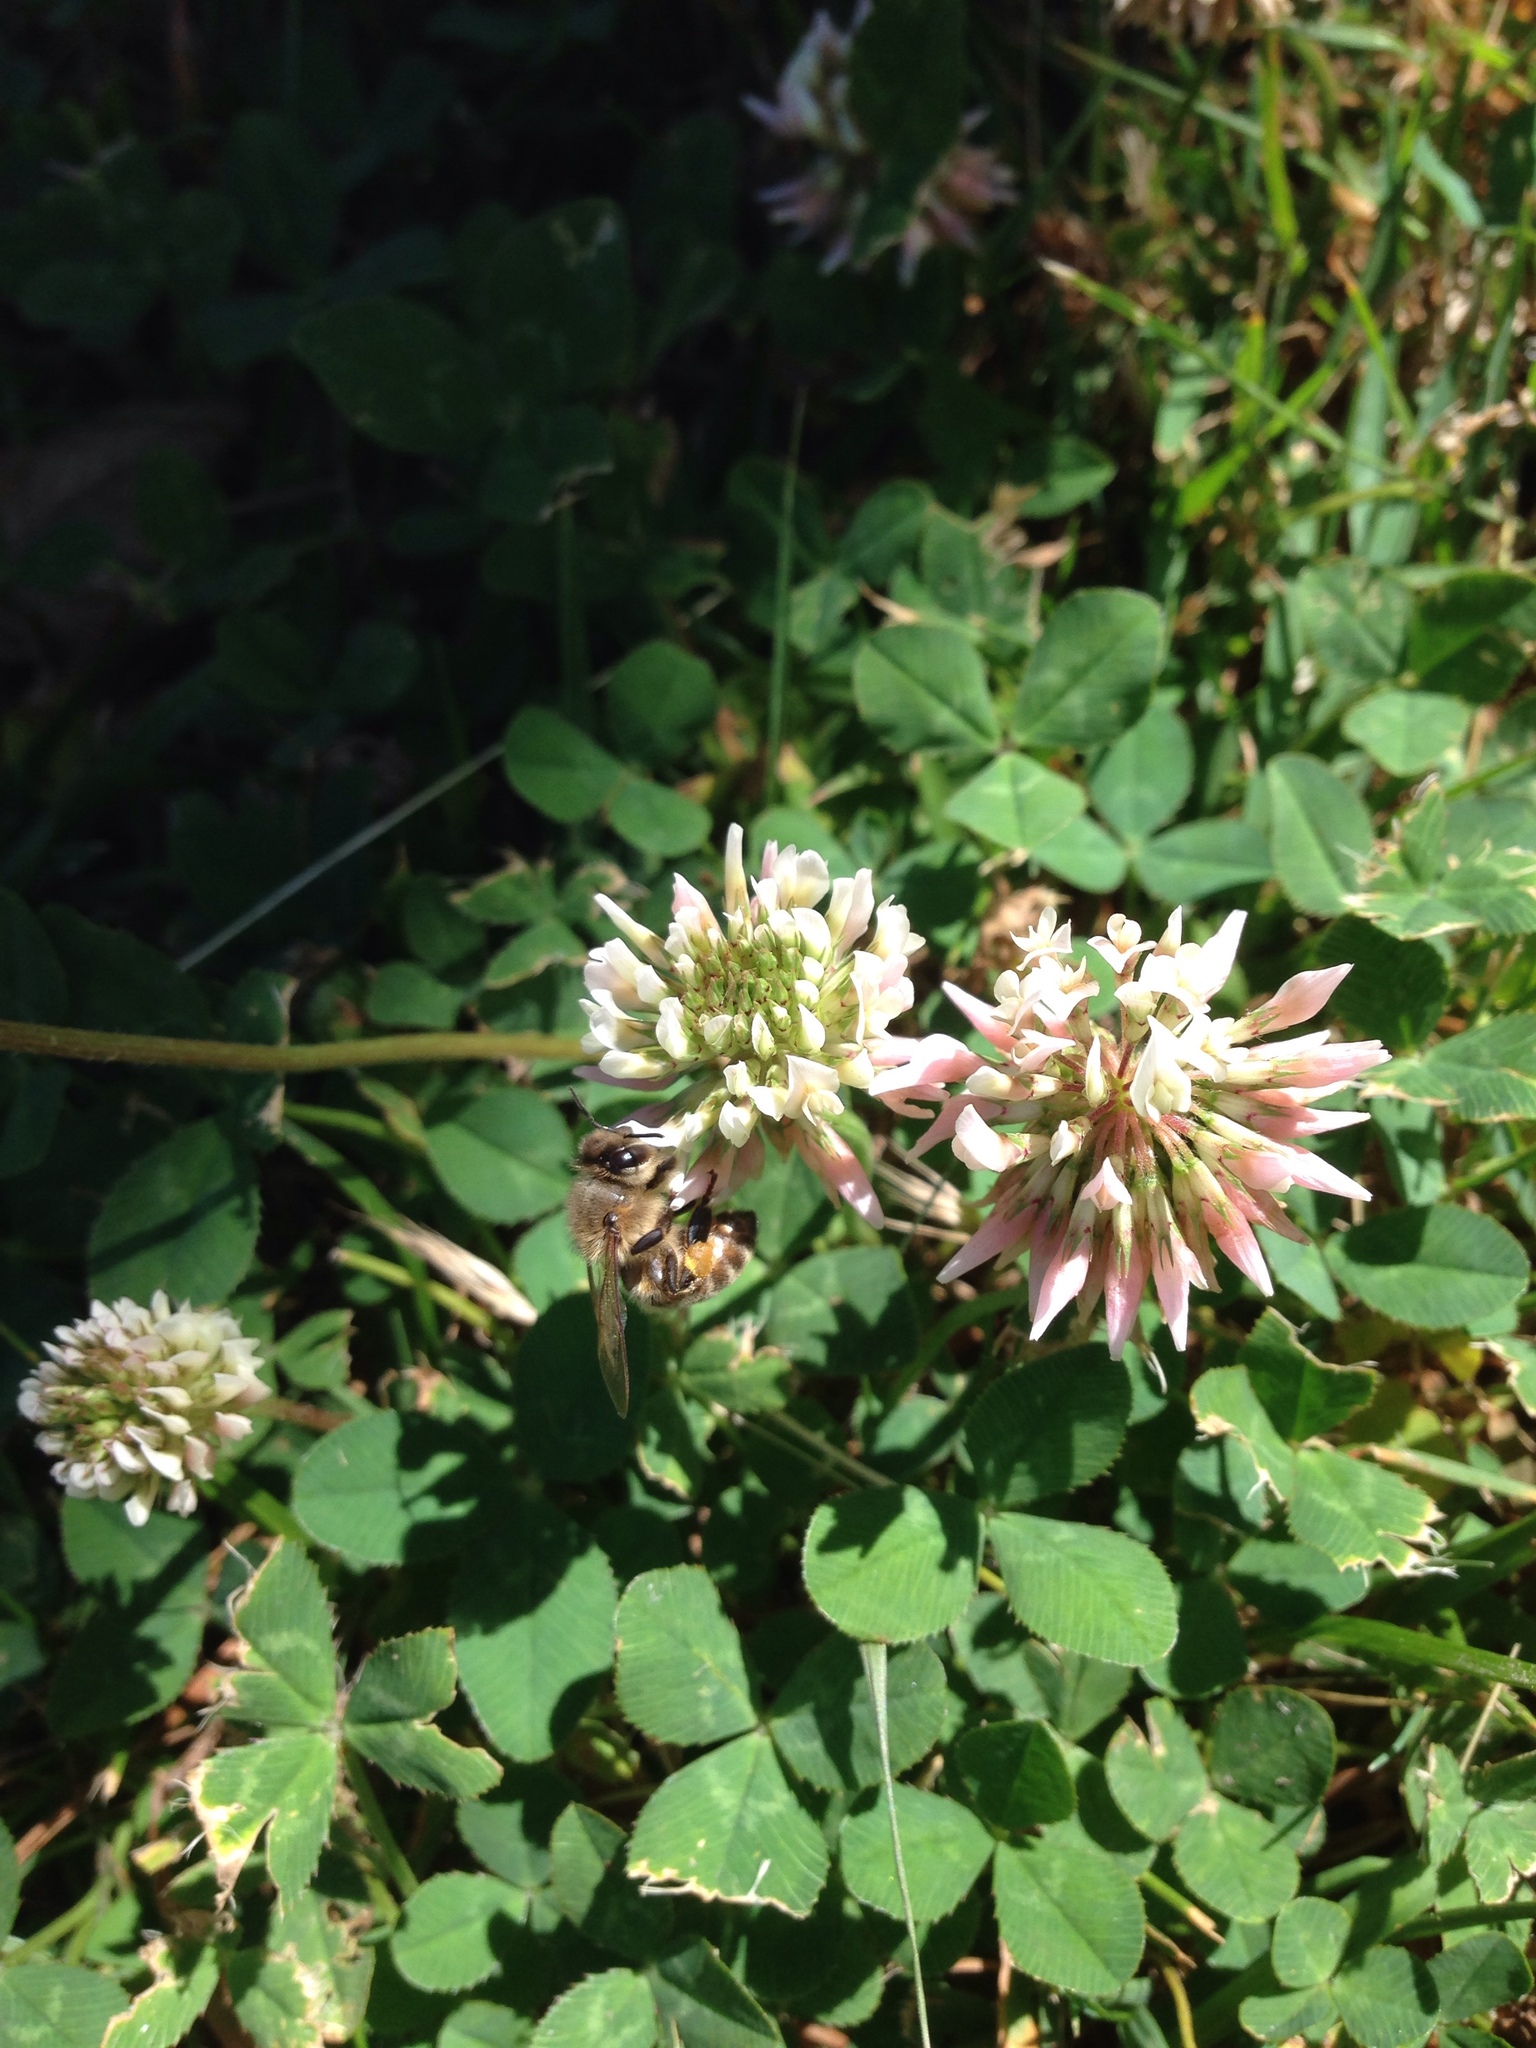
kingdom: Animalia
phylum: Arthropoda
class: Insecta
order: Hymenoptera
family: Apidae
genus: Apis
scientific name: Apis mellifera
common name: Honey bee
